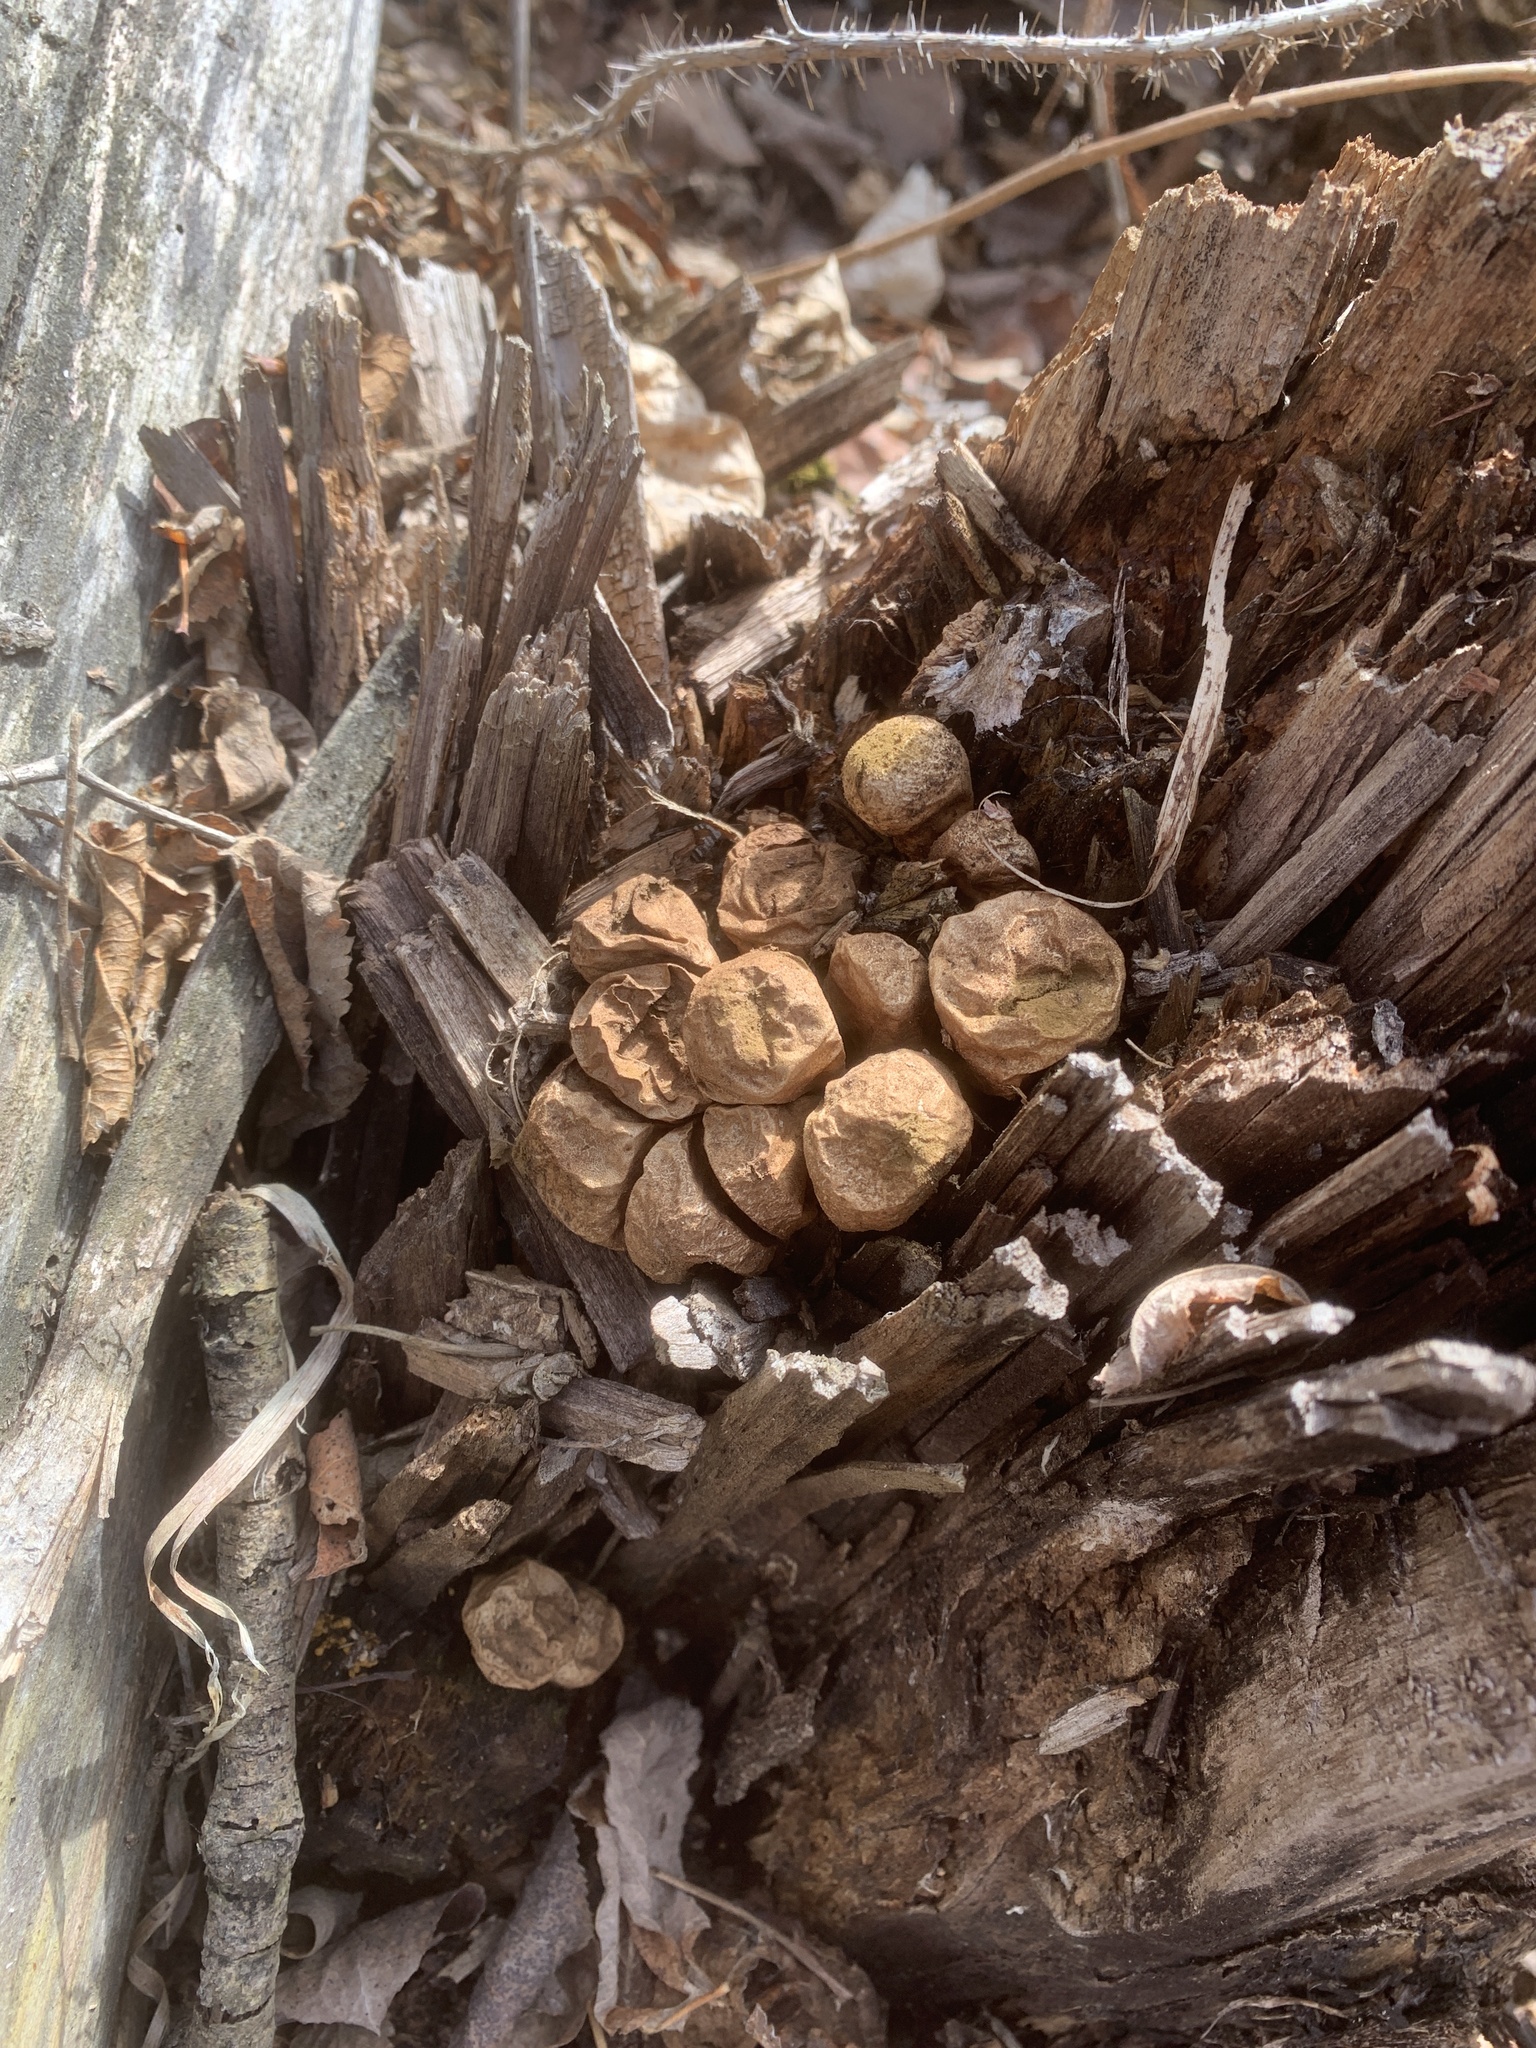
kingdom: Fungi
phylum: Basidiomycota
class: Agaricomycetes
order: Agaricales
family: Lycoperdaceae
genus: Apioperdon
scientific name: Apioperdon pyriforme
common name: Pear-shaped puffball
